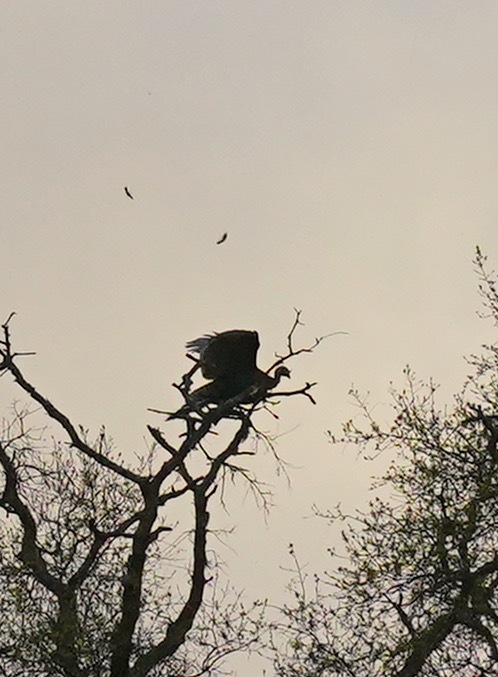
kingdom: Animalia
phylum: Chordata
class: Aves
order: Galliformes
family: Phasianidae
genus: Meleagris
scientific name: Meleagris gallopavo
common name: Wild turkey
